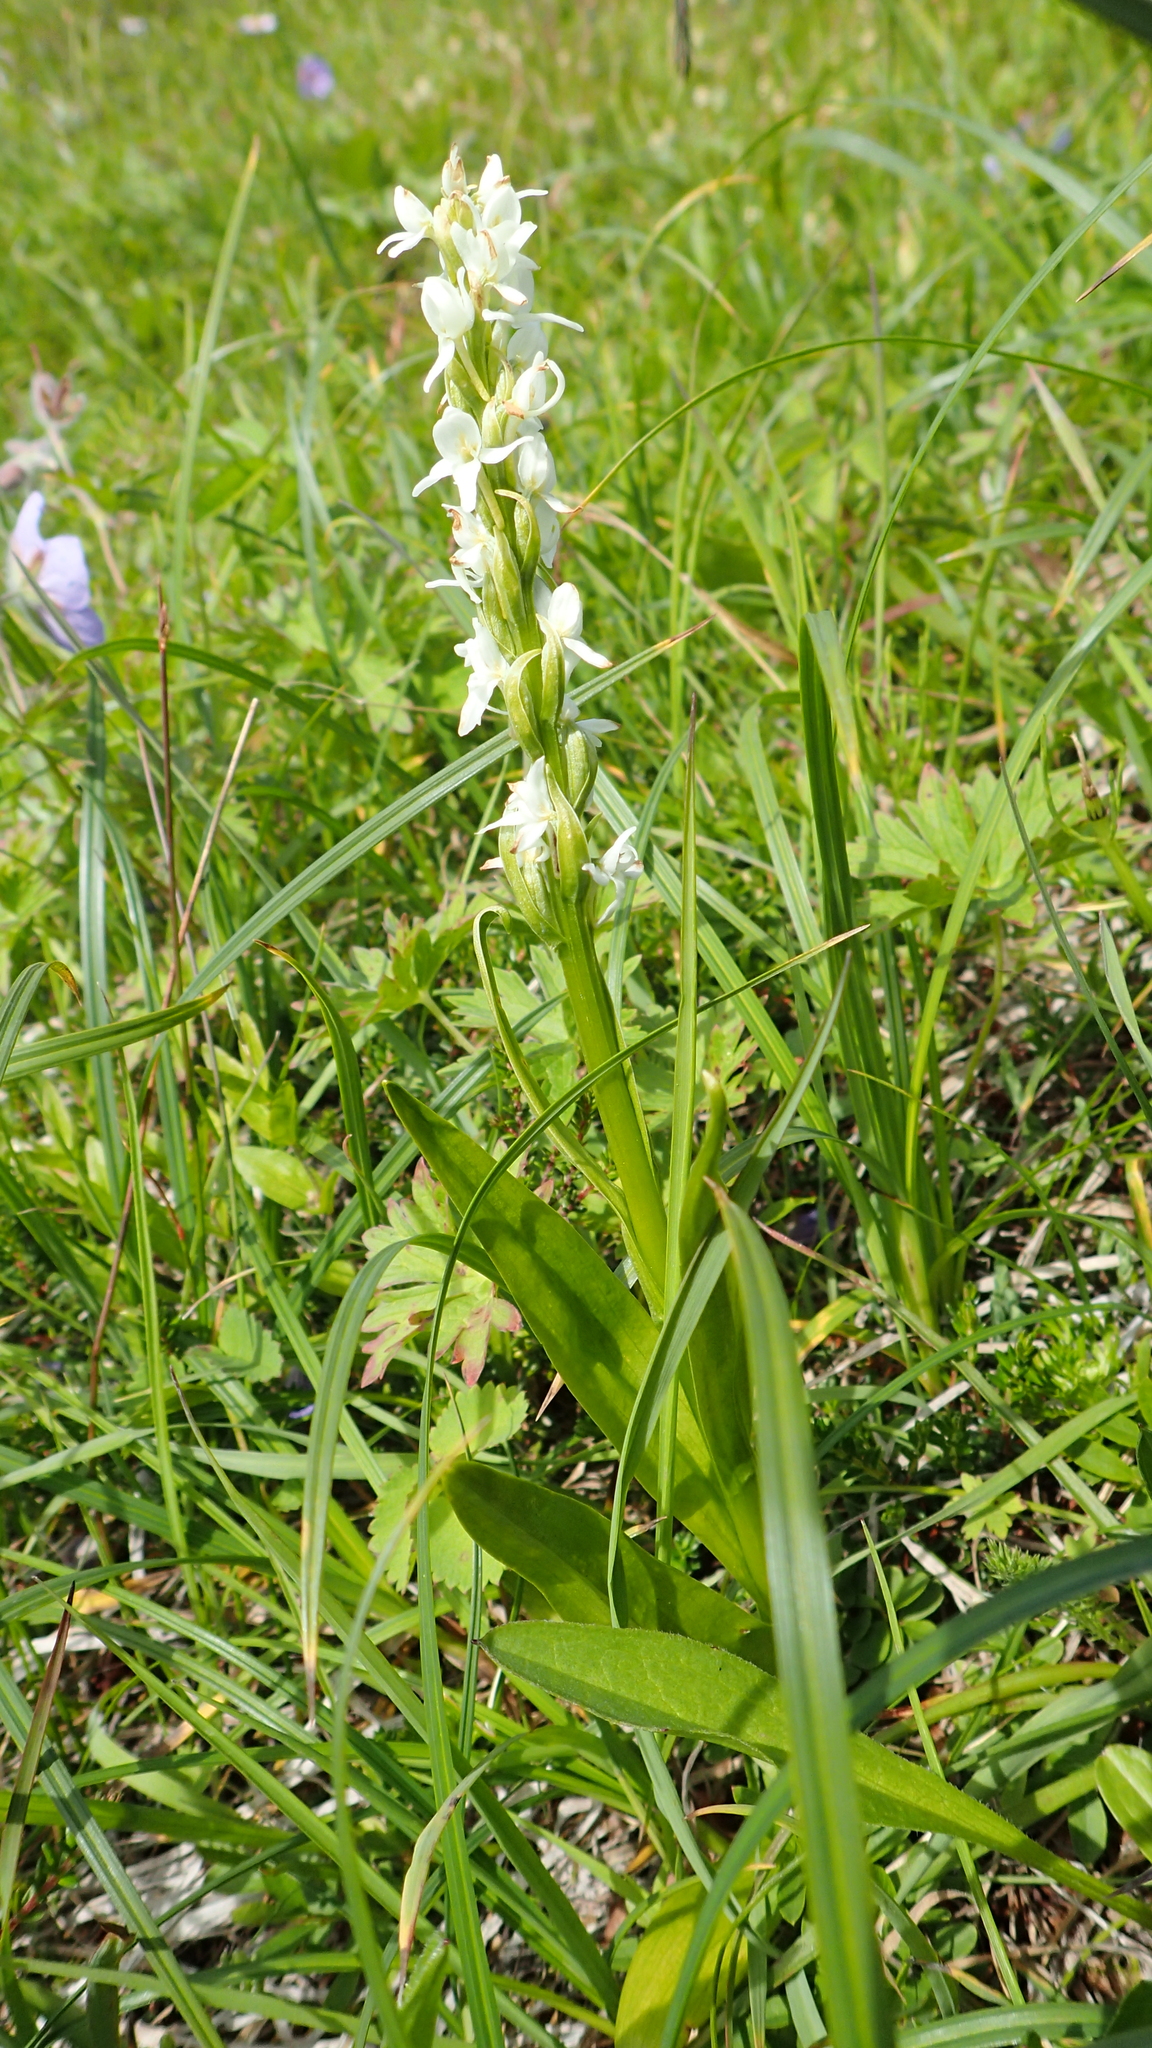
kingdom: Plantae
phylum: Tracheophyta
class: Liliopsida
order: Asparagales
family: Orchidaceae
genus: Platanthera
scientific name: Platanthera dilatata
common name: Bog candles
